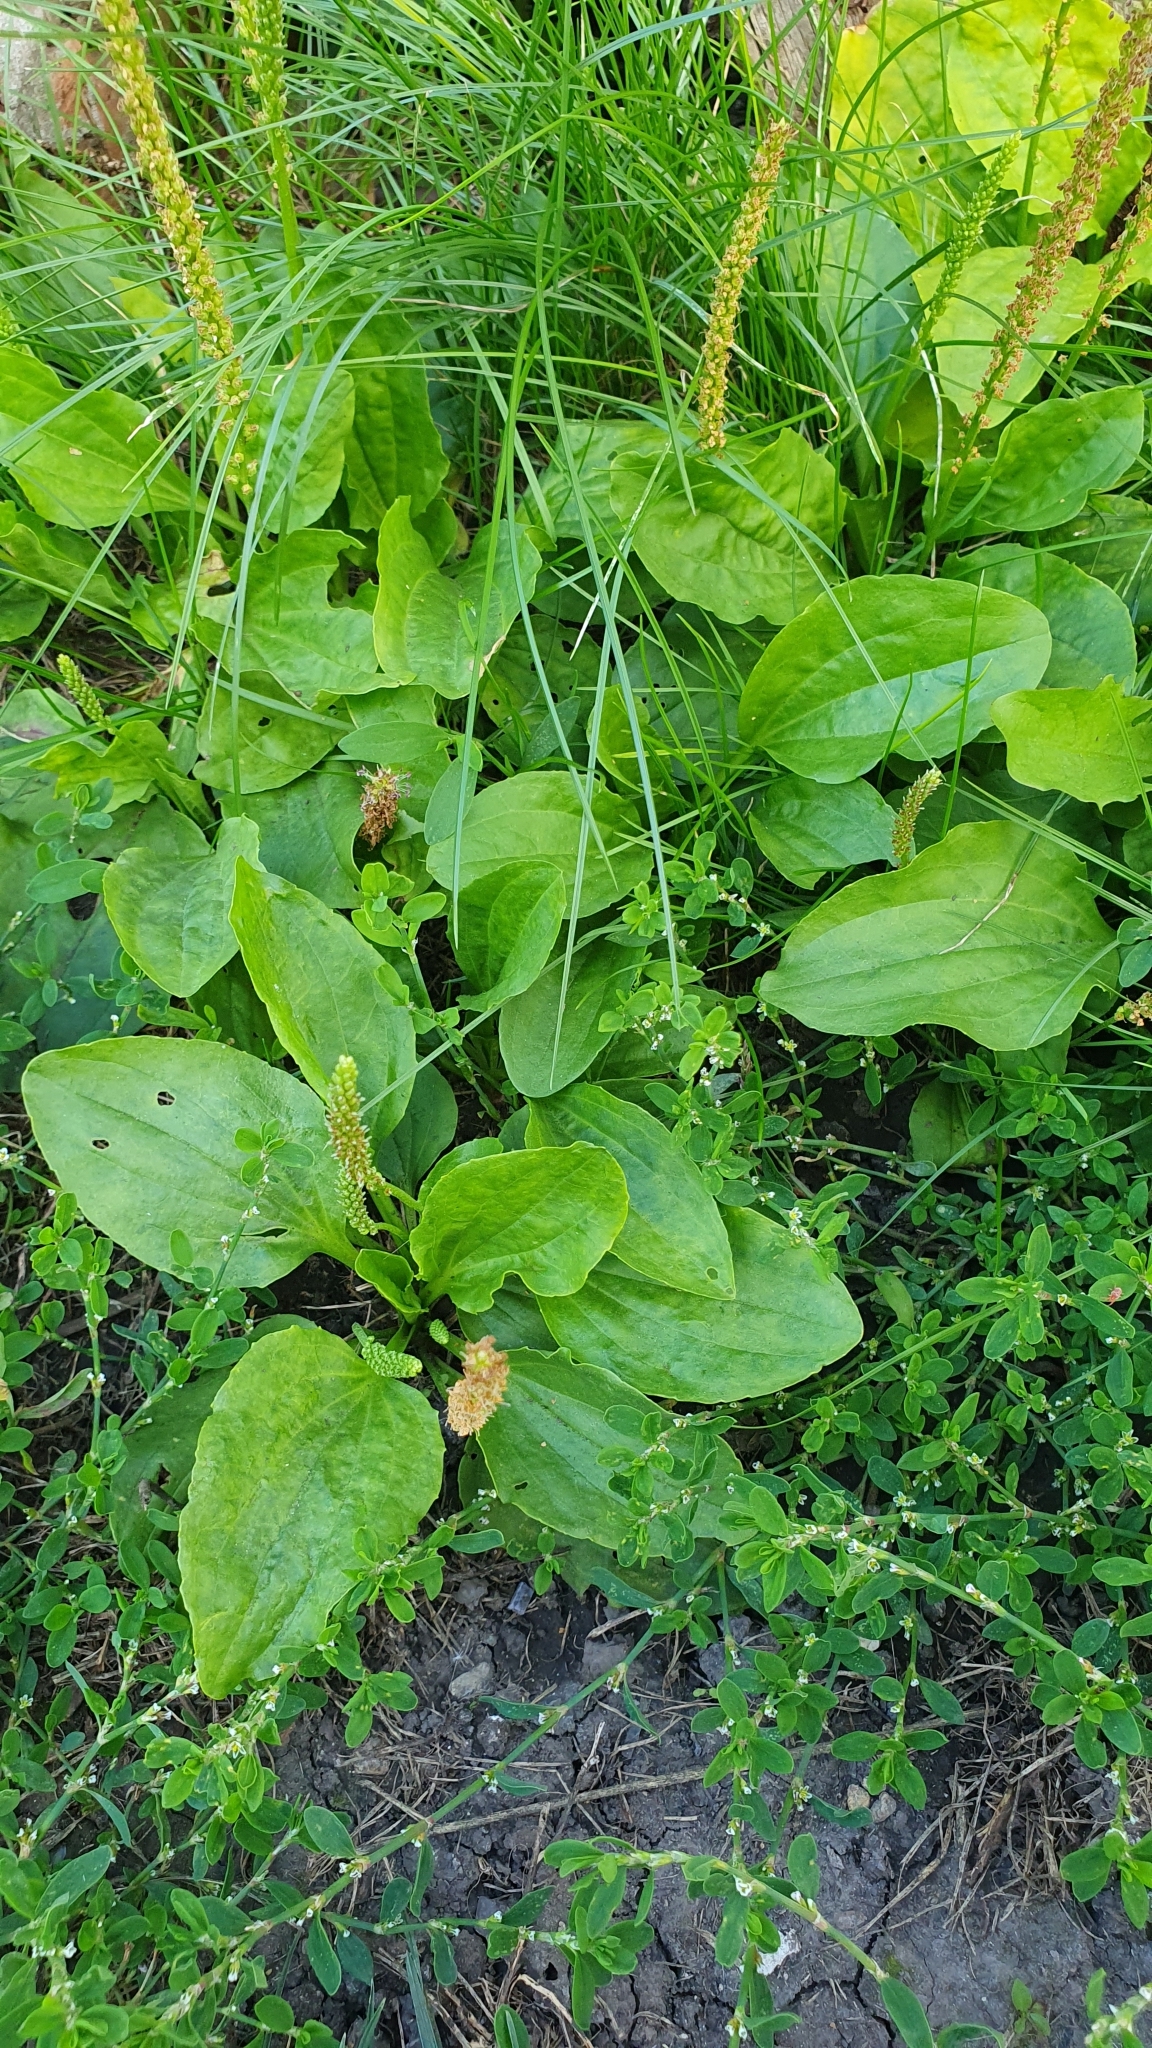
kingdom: Plantae
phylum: Tracheophyta
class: Magnoliopsida
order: Lamiales
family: Plantaginaceae
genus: Plantago
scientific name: Plantago major
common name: Common plantain
